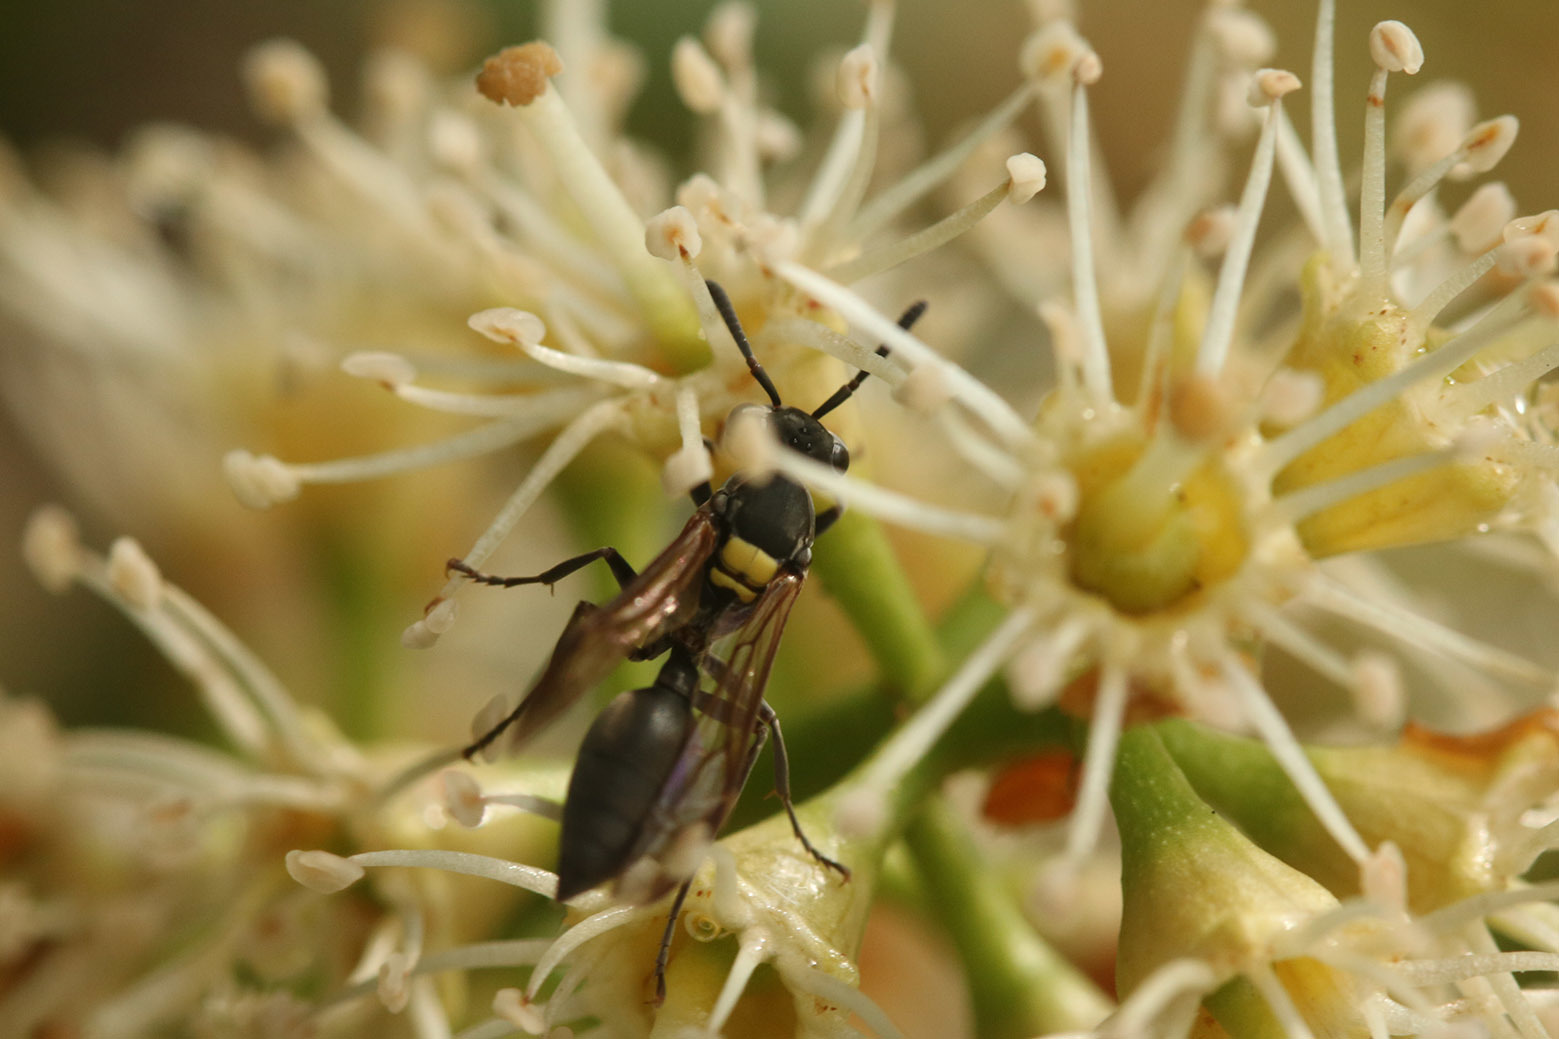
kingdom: Animalia
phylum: Arthropoda
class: Insecta
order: Hymenoptera
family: Eumenidae
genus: Polybia
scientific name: Polybia scutellaris
